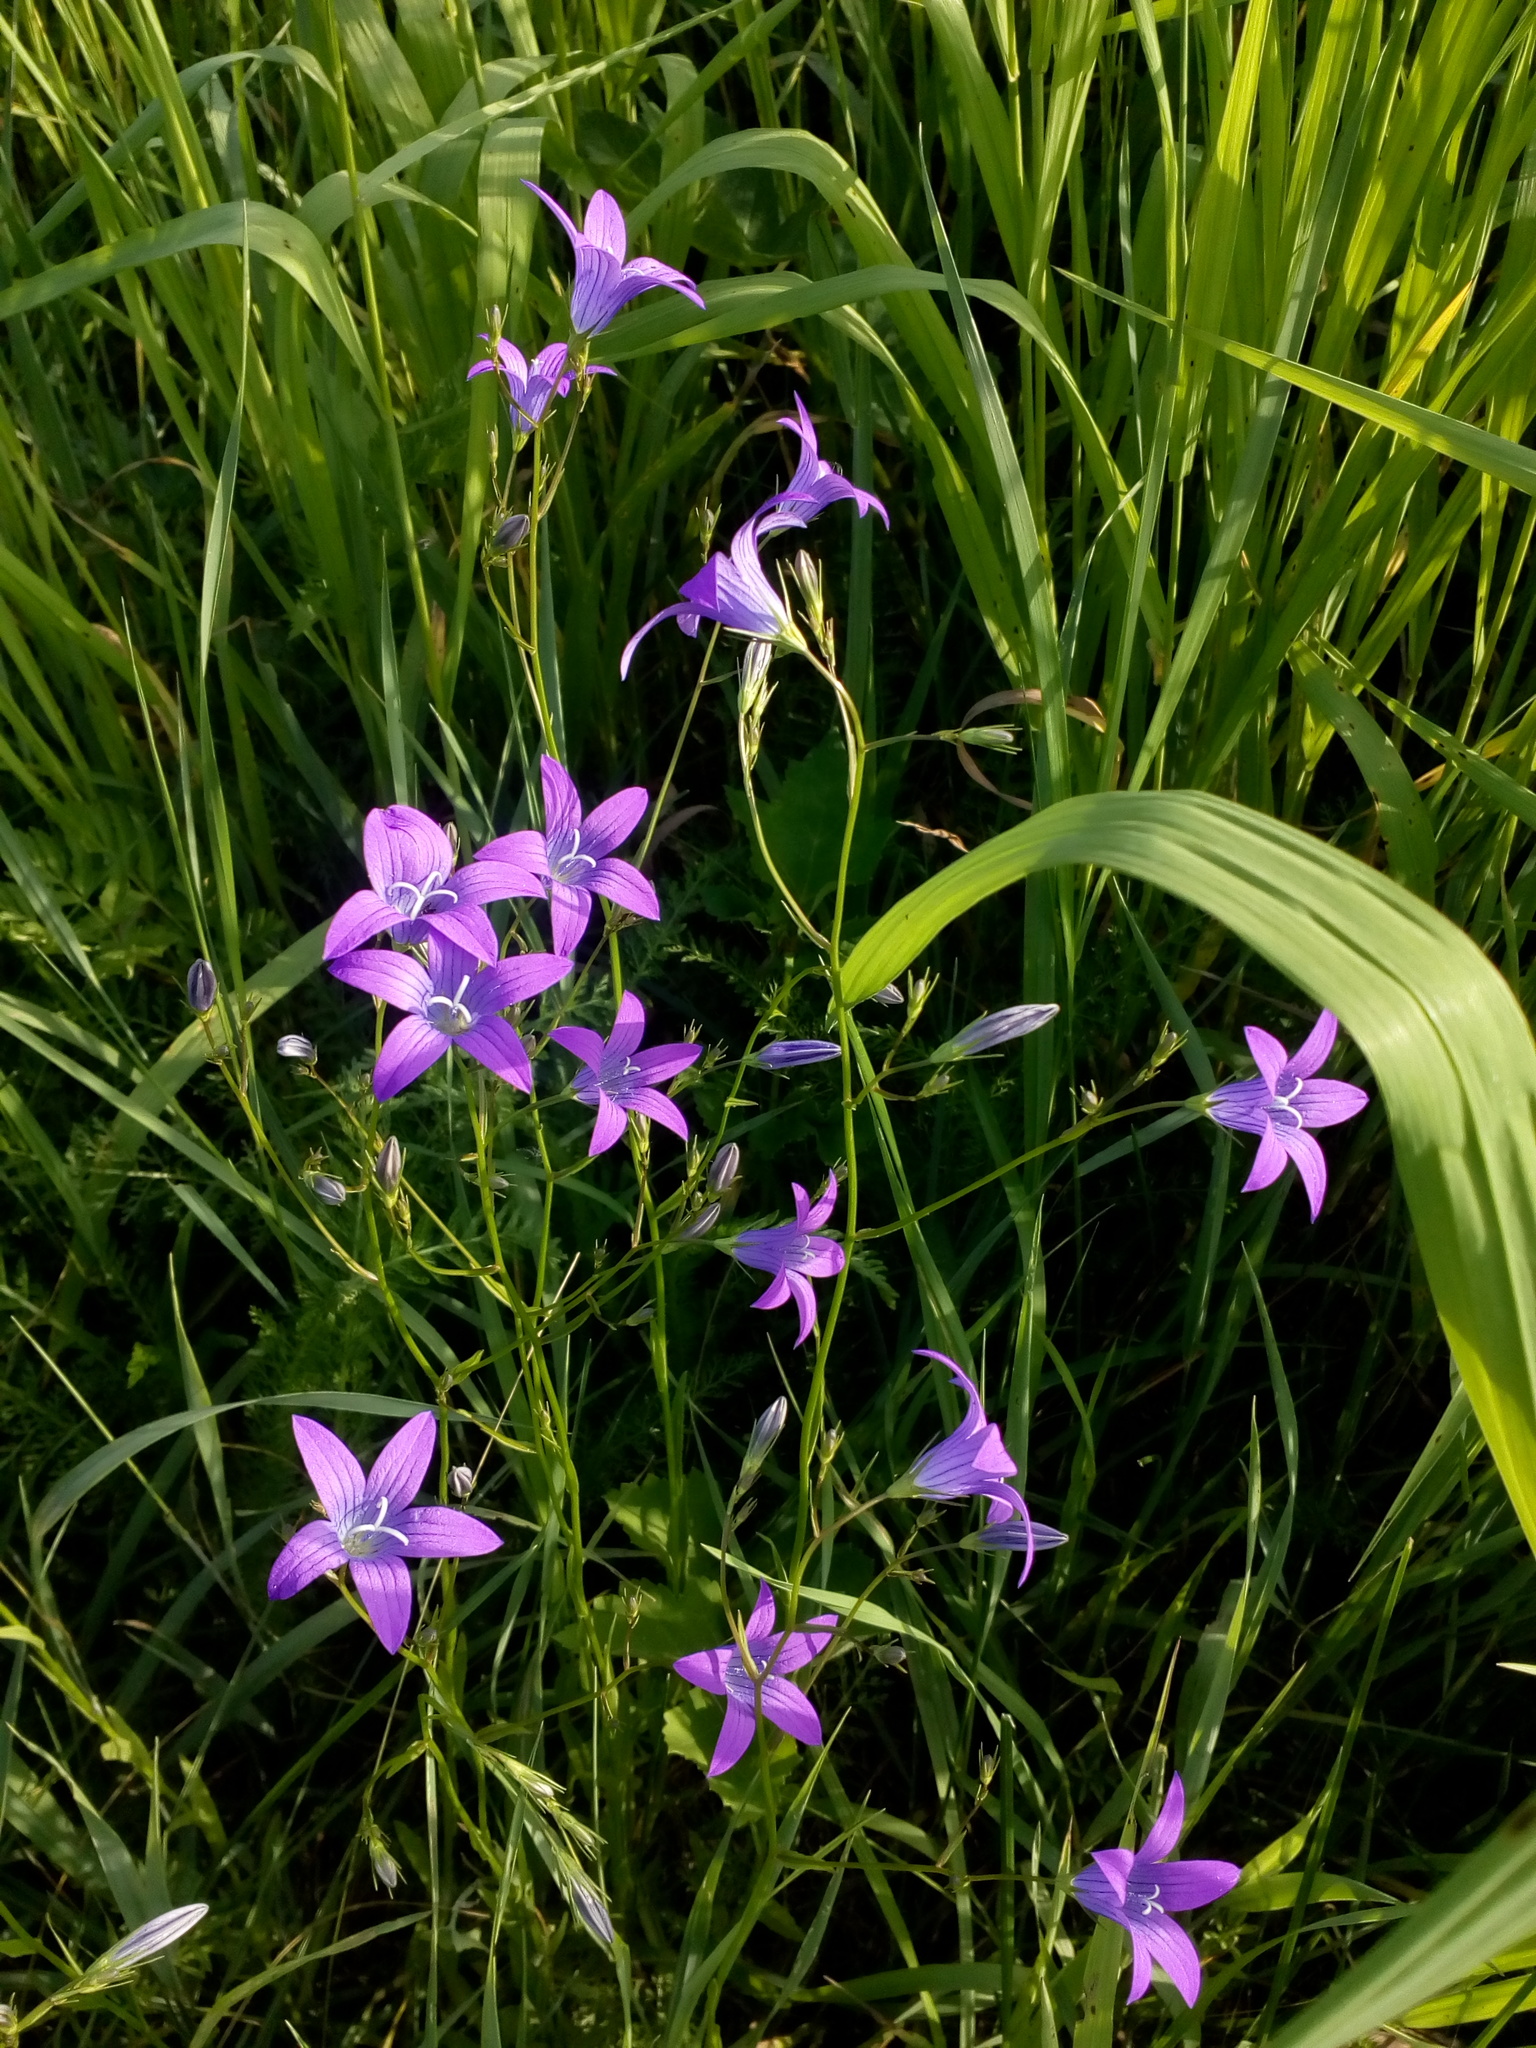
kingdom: Plantae
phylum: Tracheophyta
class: Magnoliopsida
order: Asterales
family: Campanulaceae
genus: Campanula
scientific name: Campanula patula
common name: Spreading bellflower
